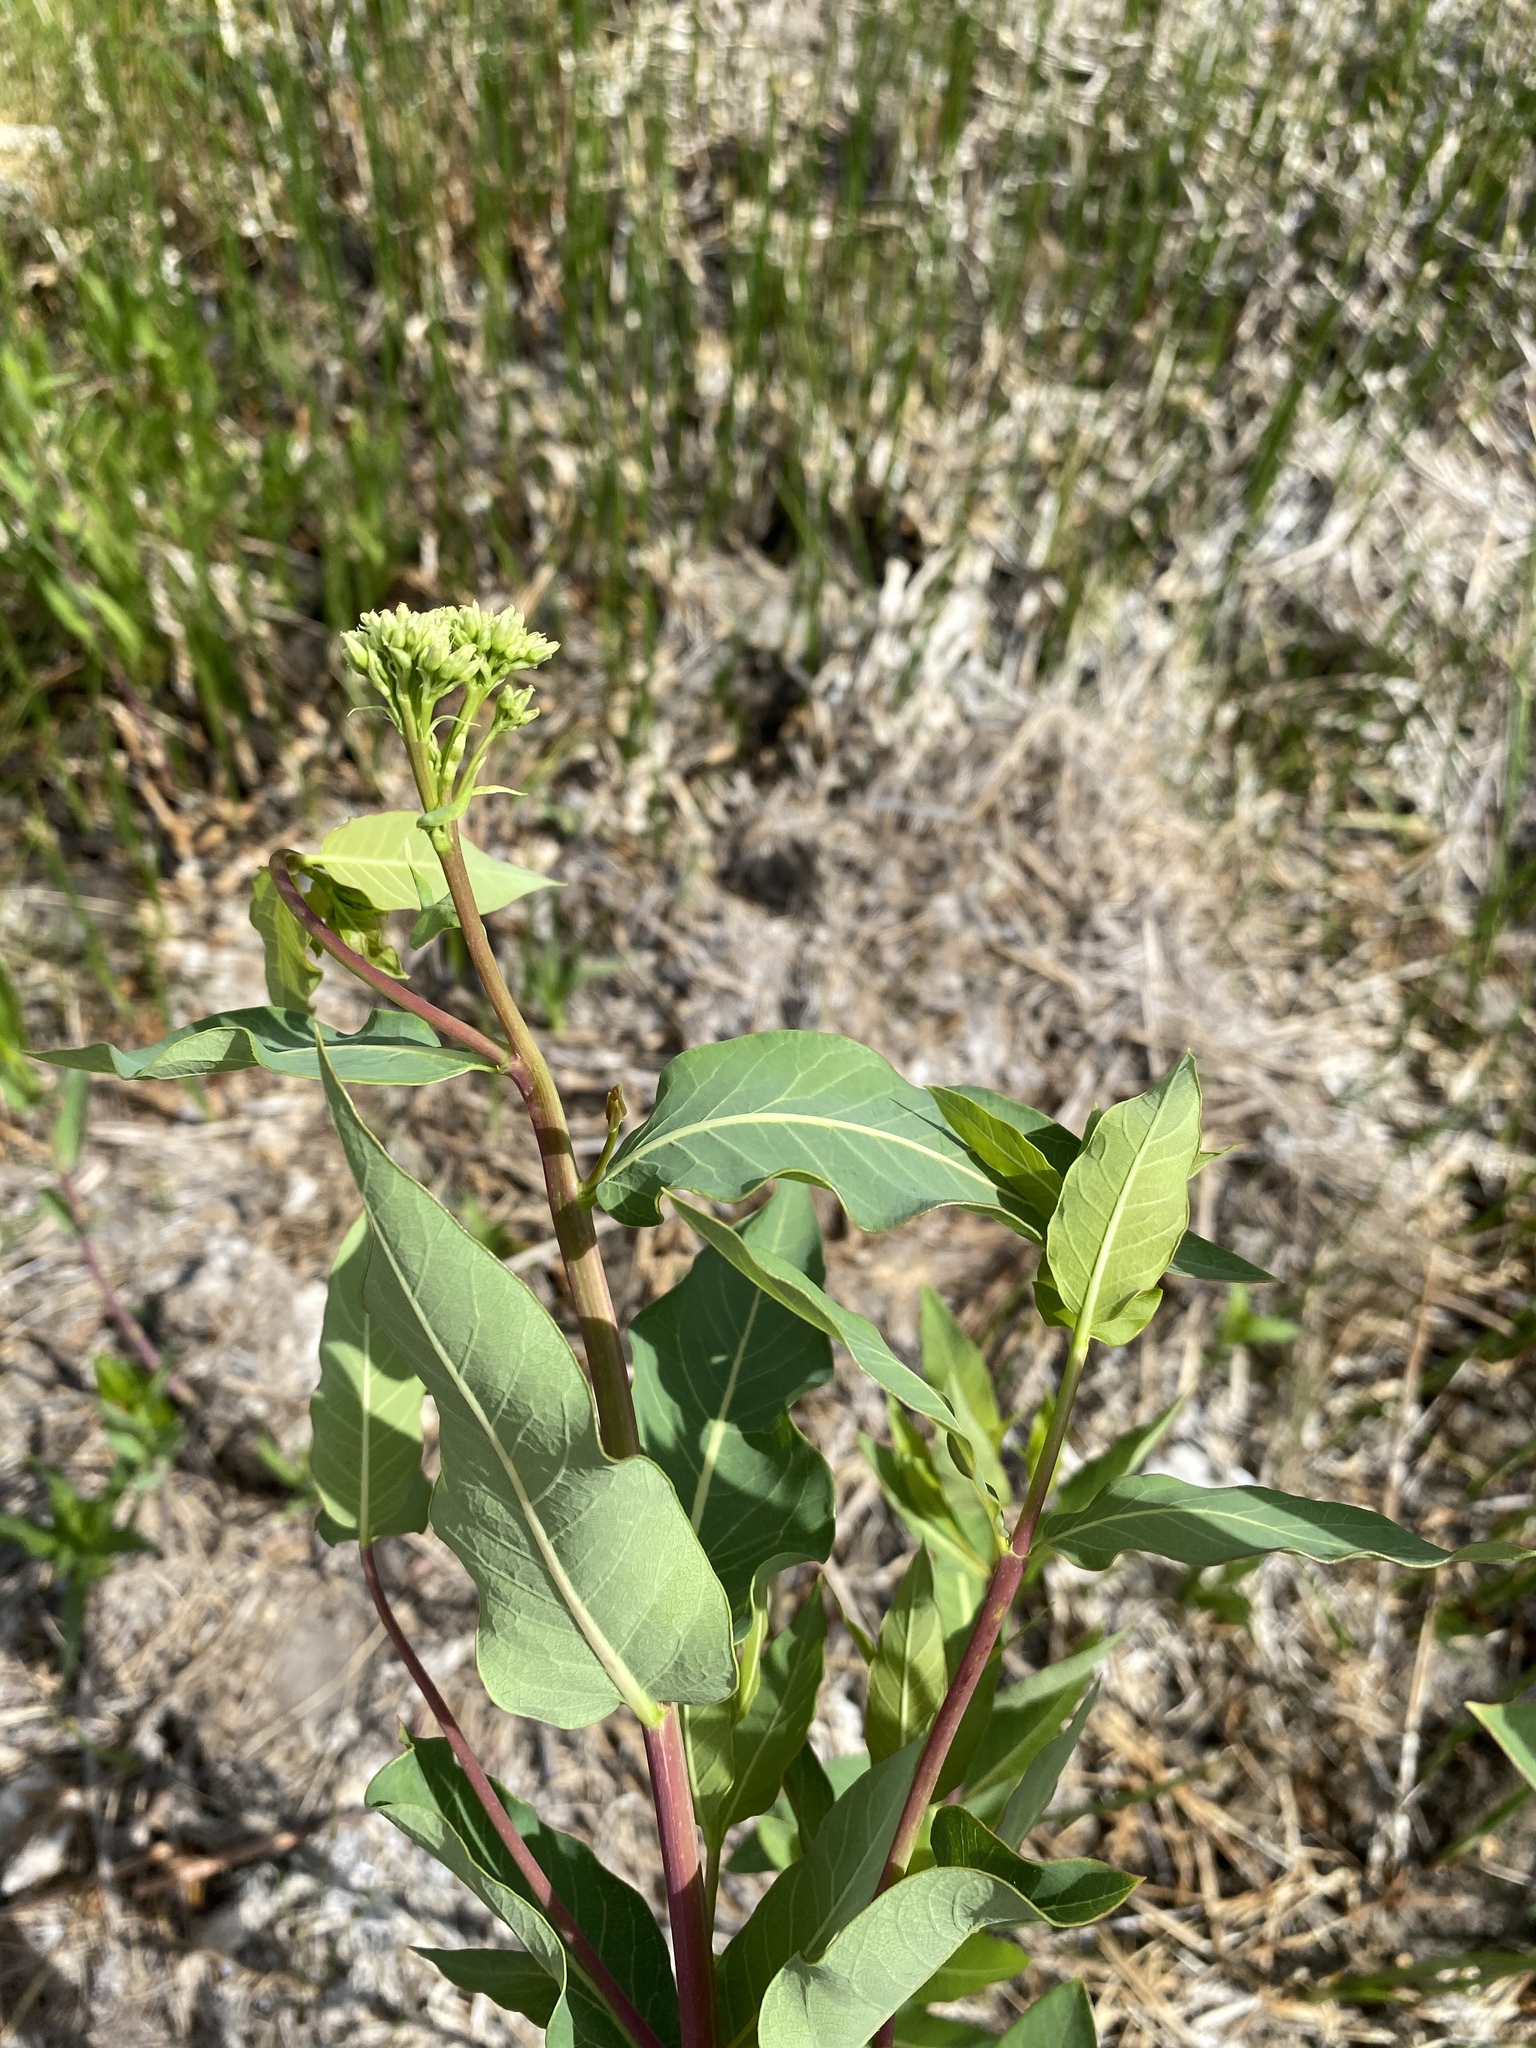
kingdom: Plantae
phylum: Tracheophyta
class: Magnoliopsida
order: Gentianales
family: Apocynaceae
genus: Apocynum
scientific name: Apocynum cannabinum
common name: Hemp dogbane
